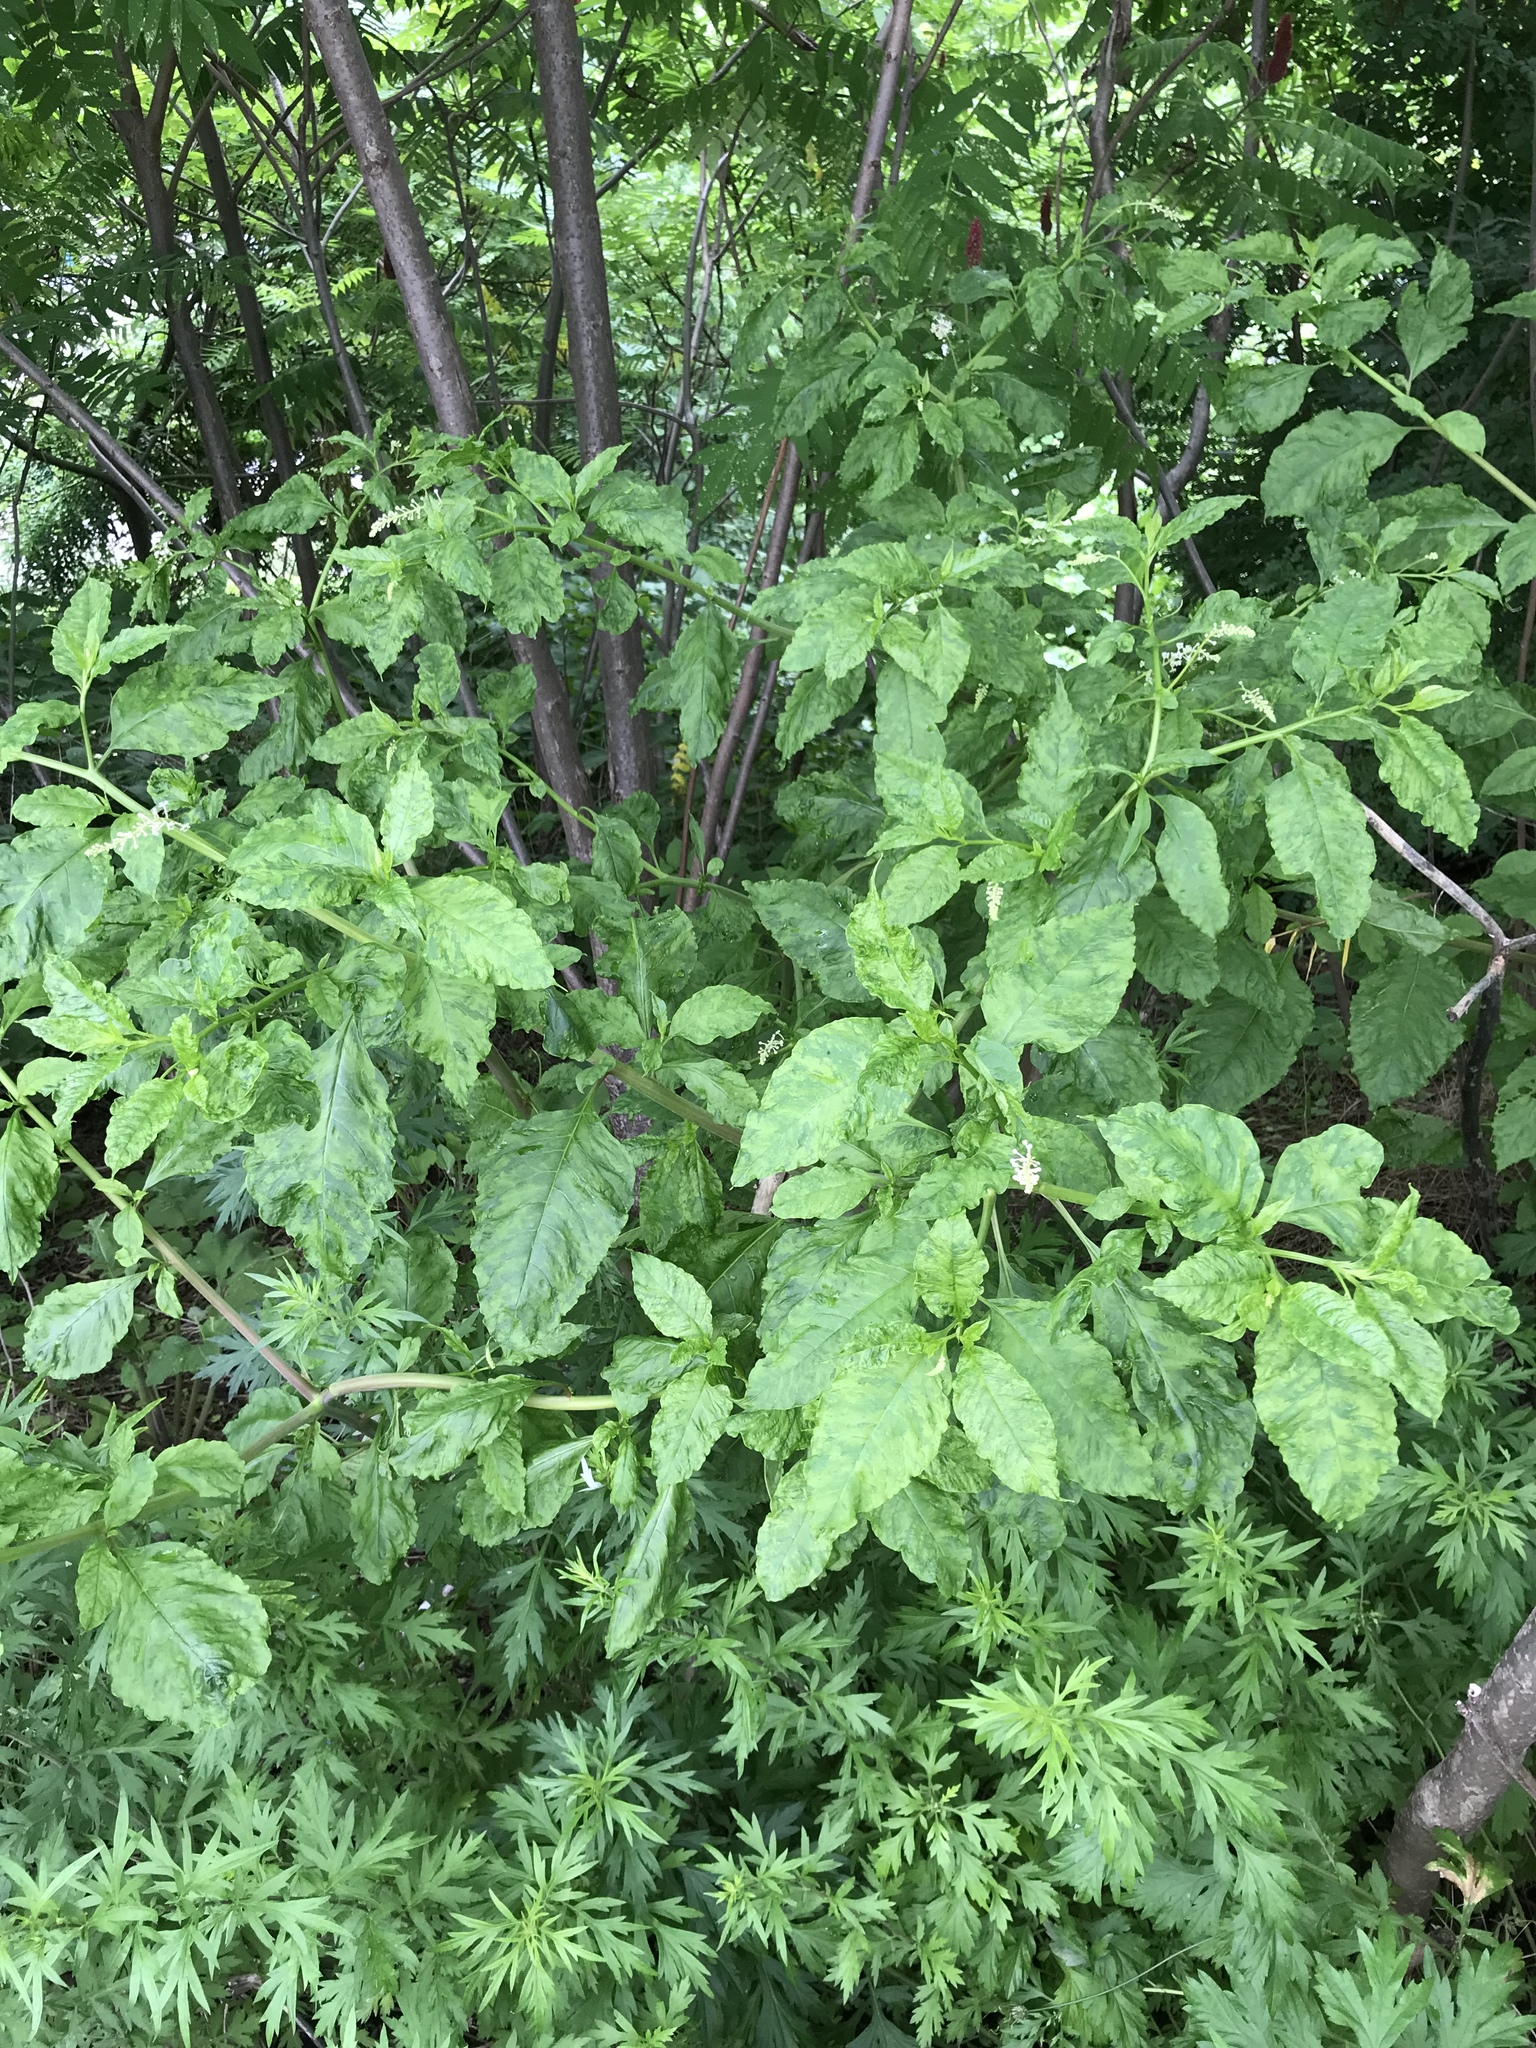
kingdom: Plantae
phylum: Tracheophyta
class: Magnoliopsida
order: Caryophyllales
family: Phytolaccaceae
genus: Phytolacca
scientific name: Phytolacca americana
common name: American pokeweed
